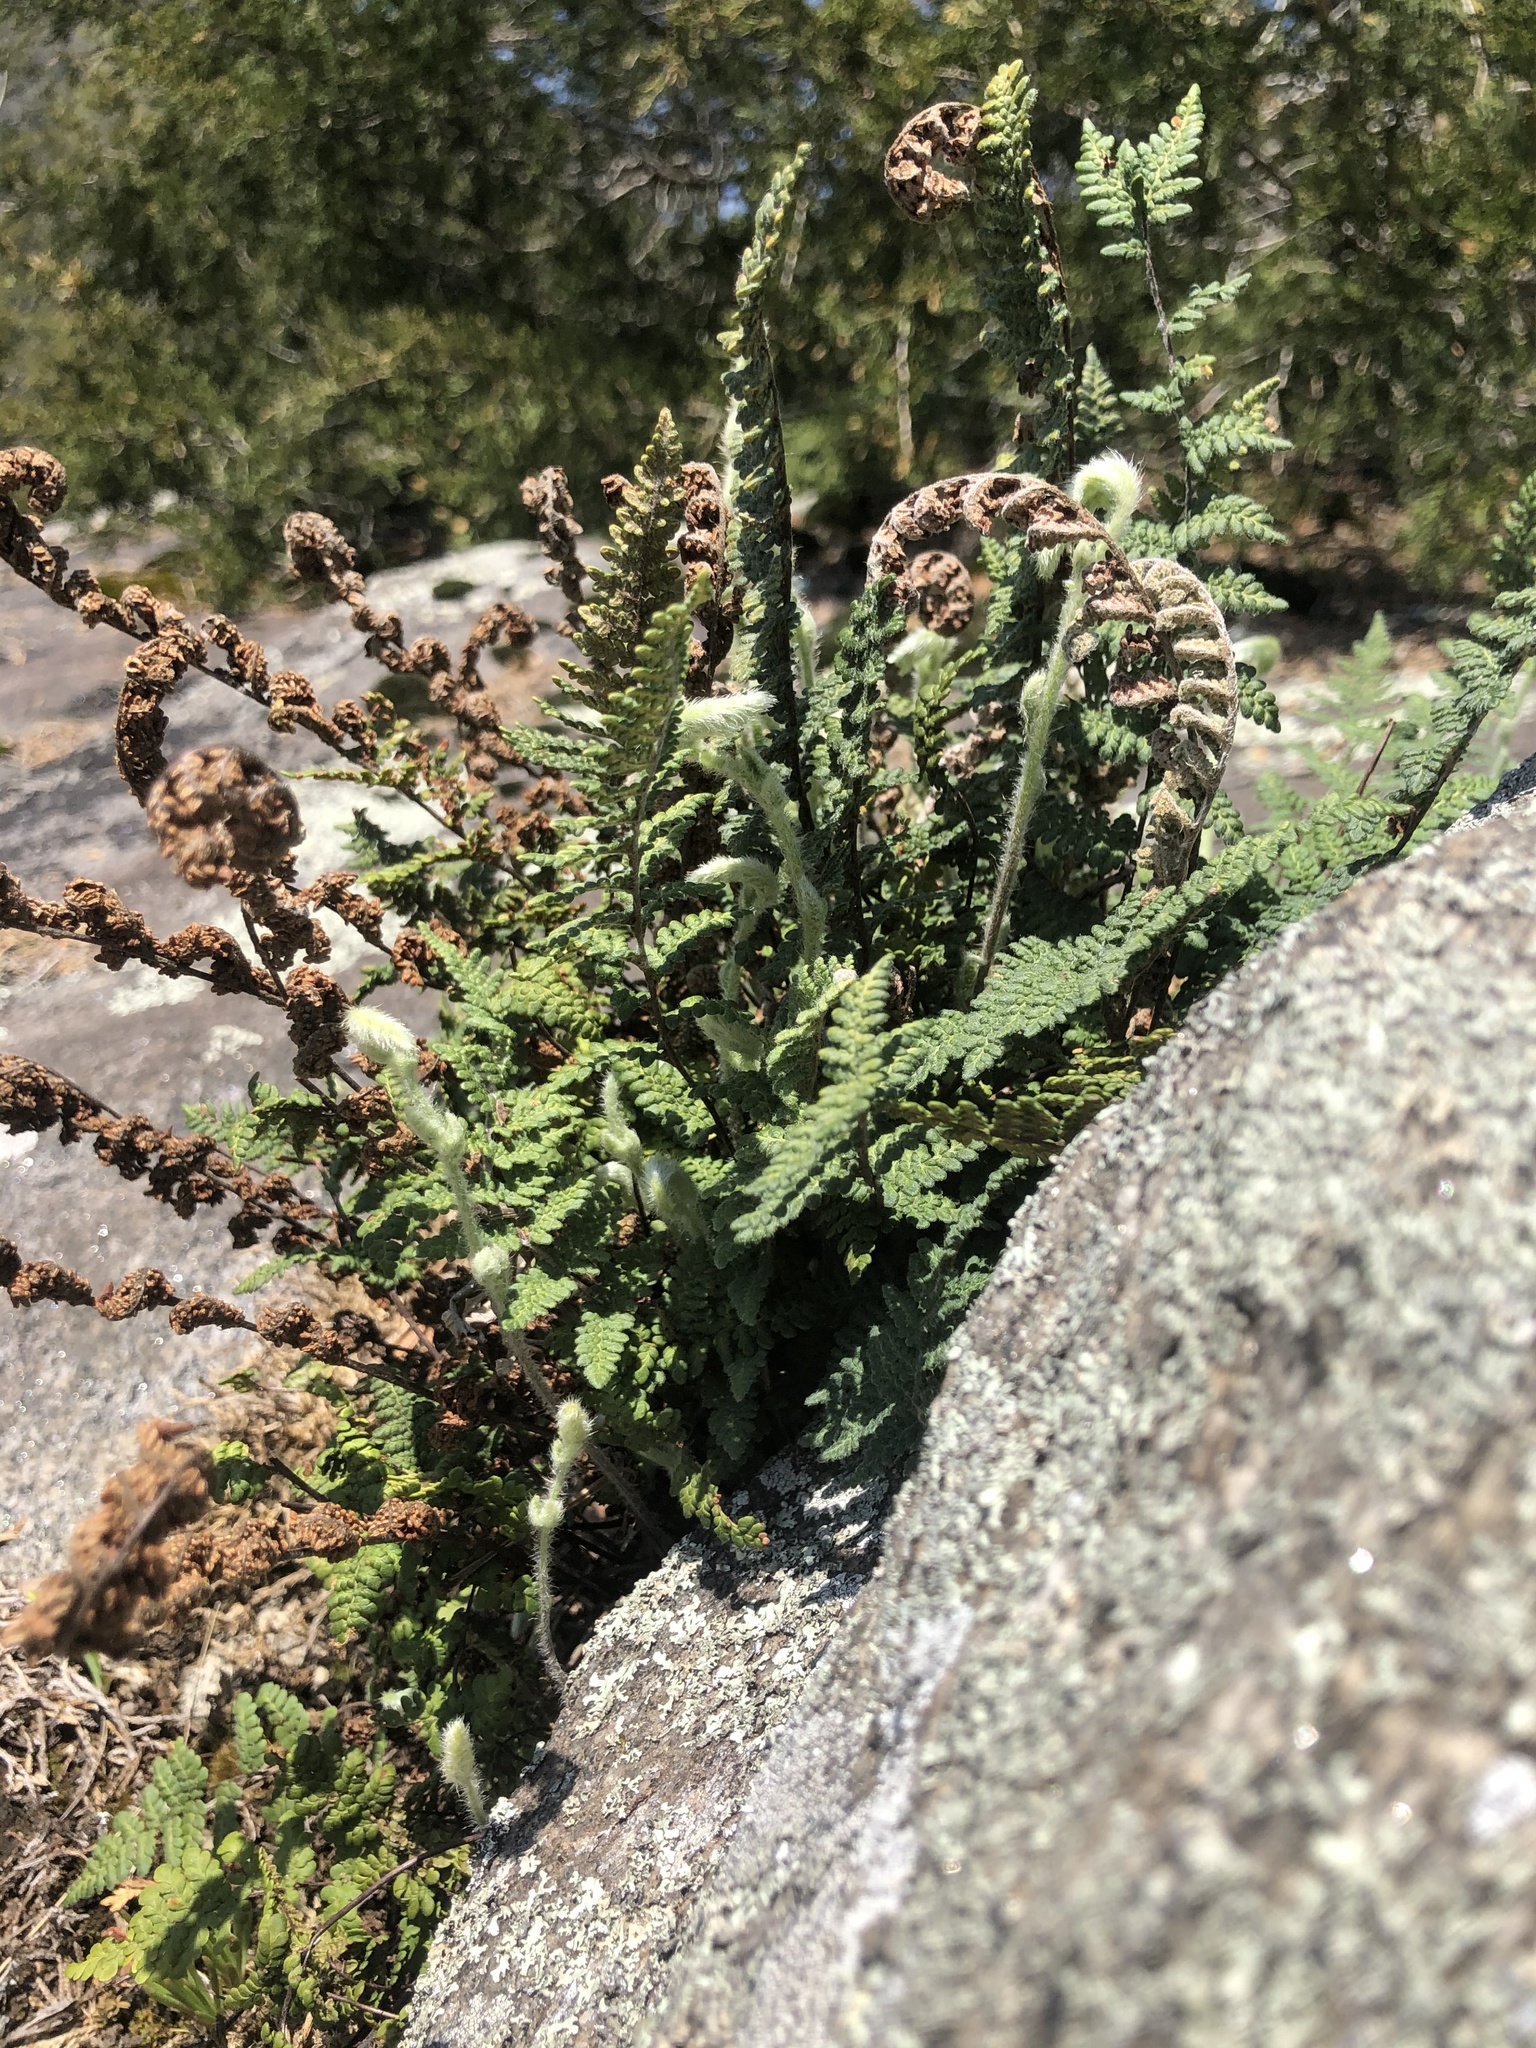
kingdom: Plantae
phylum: Tracheophyta
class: Polypodiopsida
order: Polypodiales
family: Pteridaceae
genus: Myriopteris
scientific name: Myriopteris tomentosa
